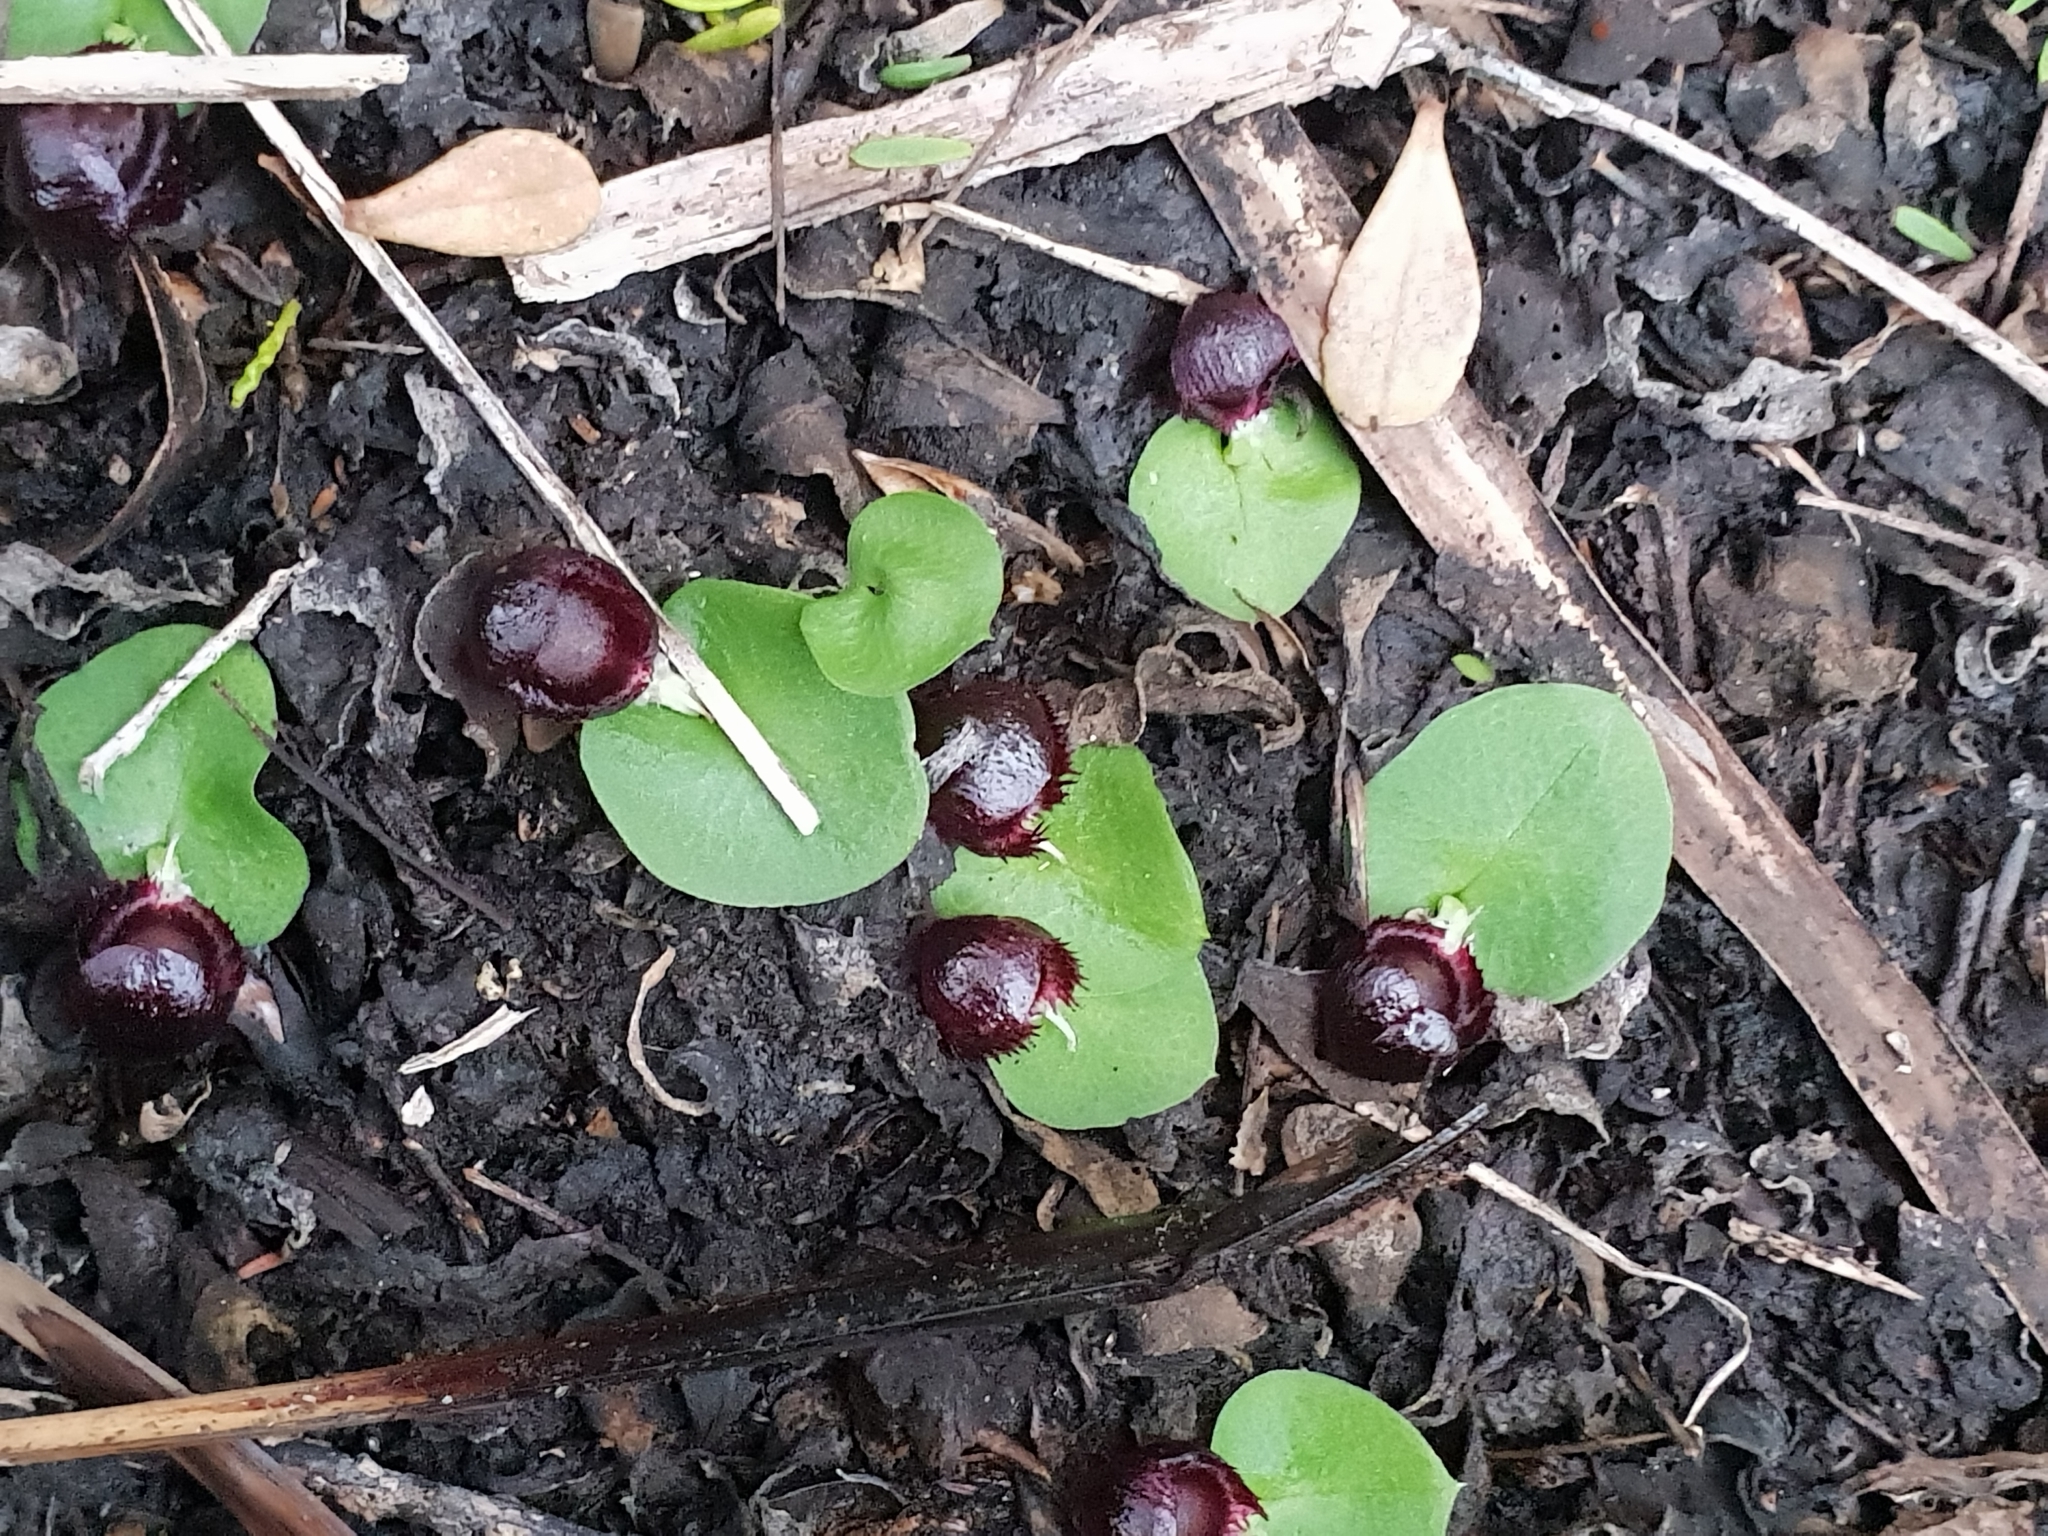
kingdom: Plantae
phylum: Tracheophyta
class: Liliopsida
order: Asparagales
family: Orchidaceae
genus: Corybas
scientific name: Corybas recurvus
